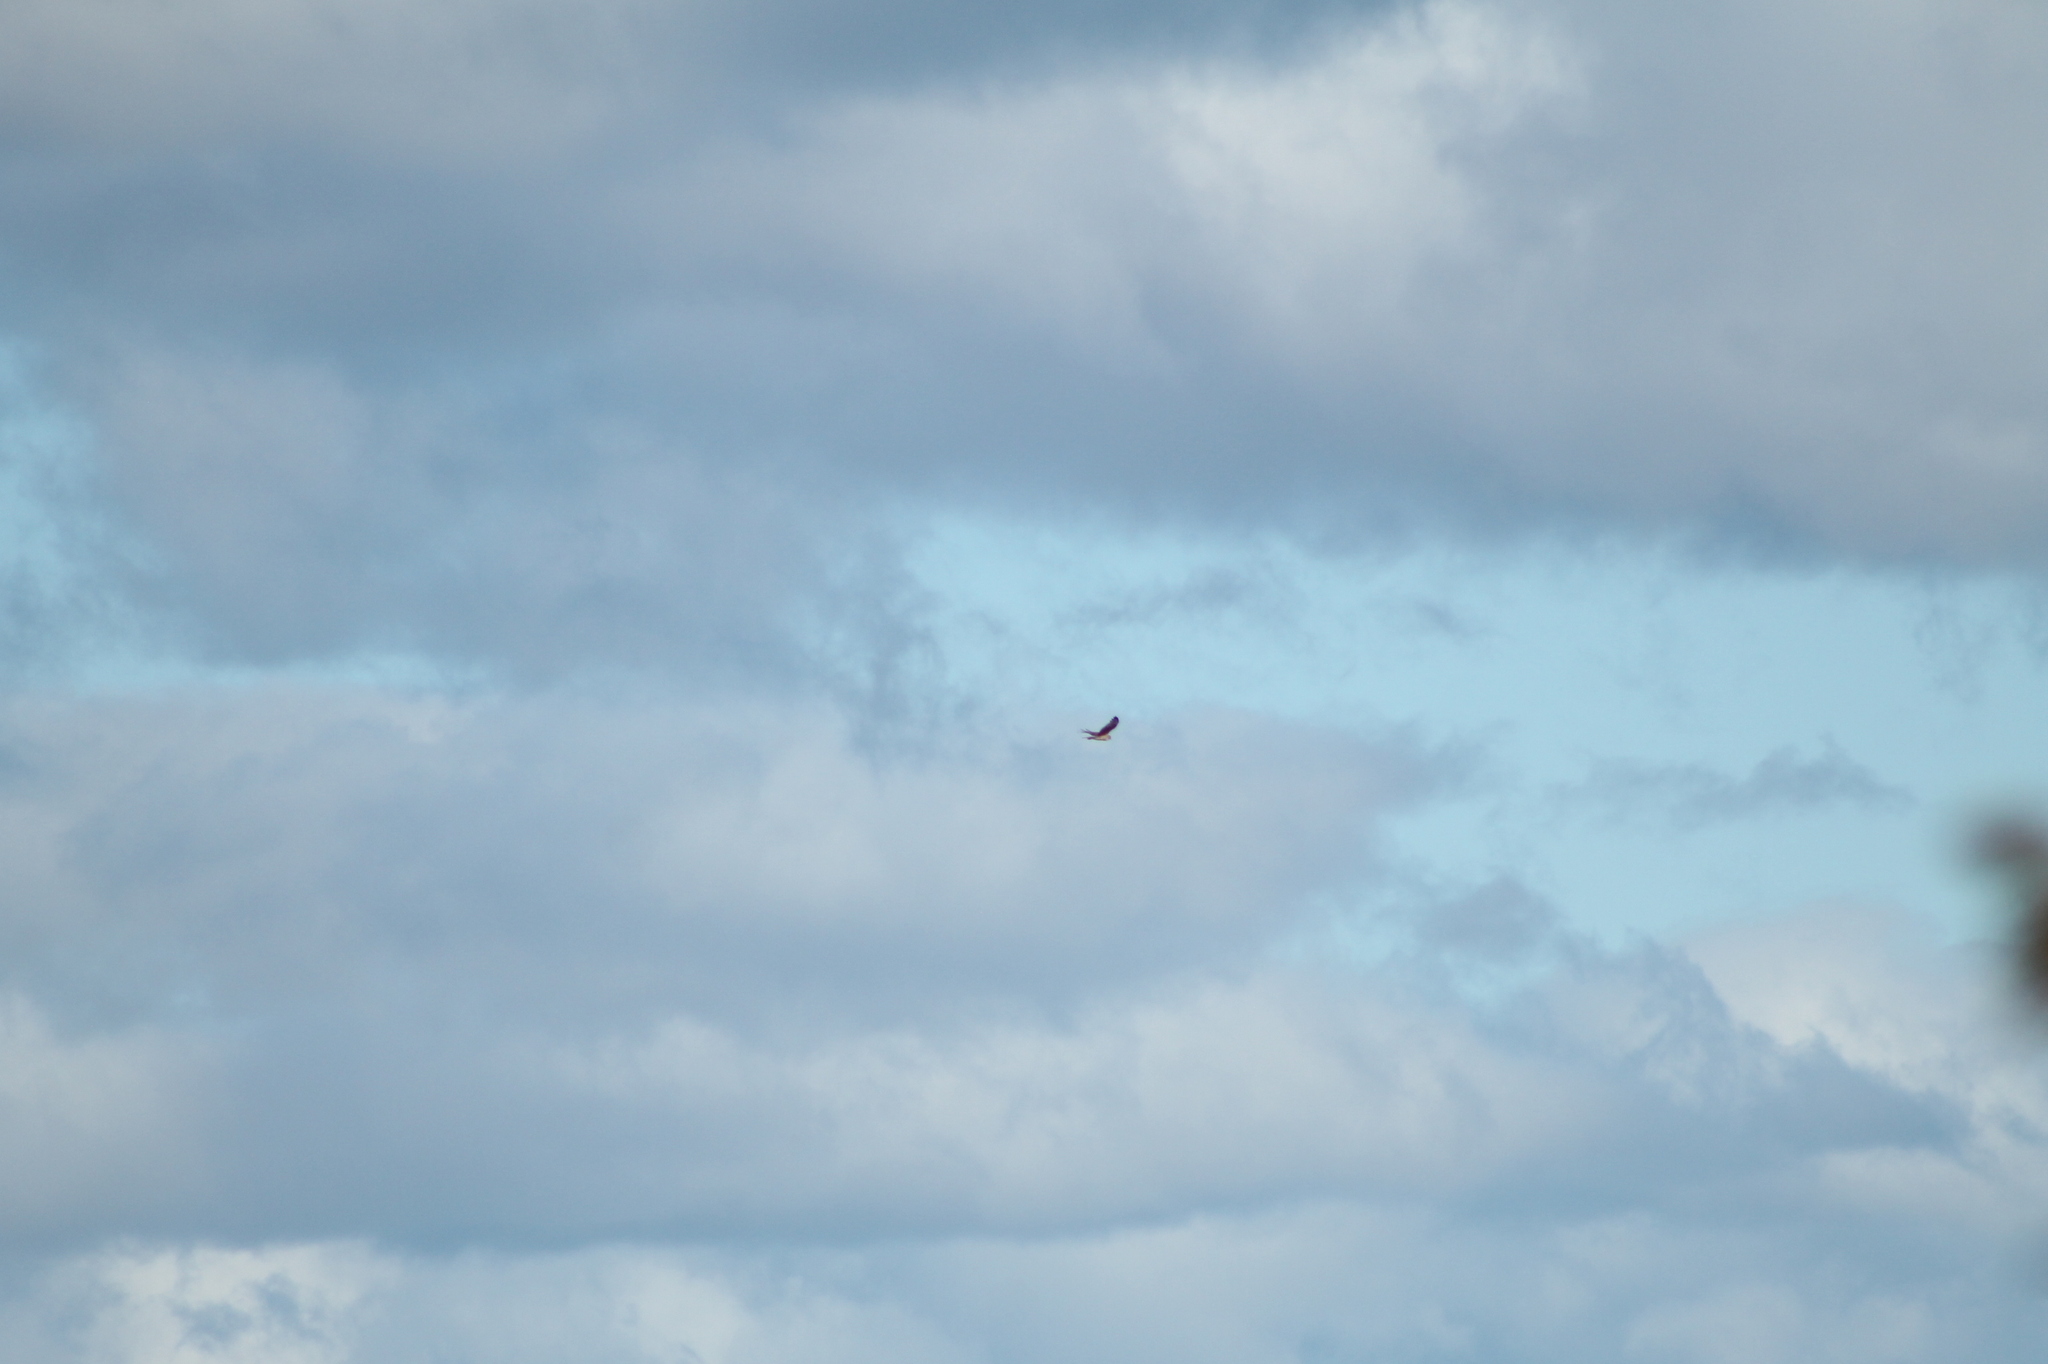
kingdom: Animalia
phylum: Chordata
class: Aves
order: Accipitriformes
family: Accipitridae
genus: Haliaeetus
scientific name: Haliaeetus leucogaster
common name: White-bellied sea eagle
